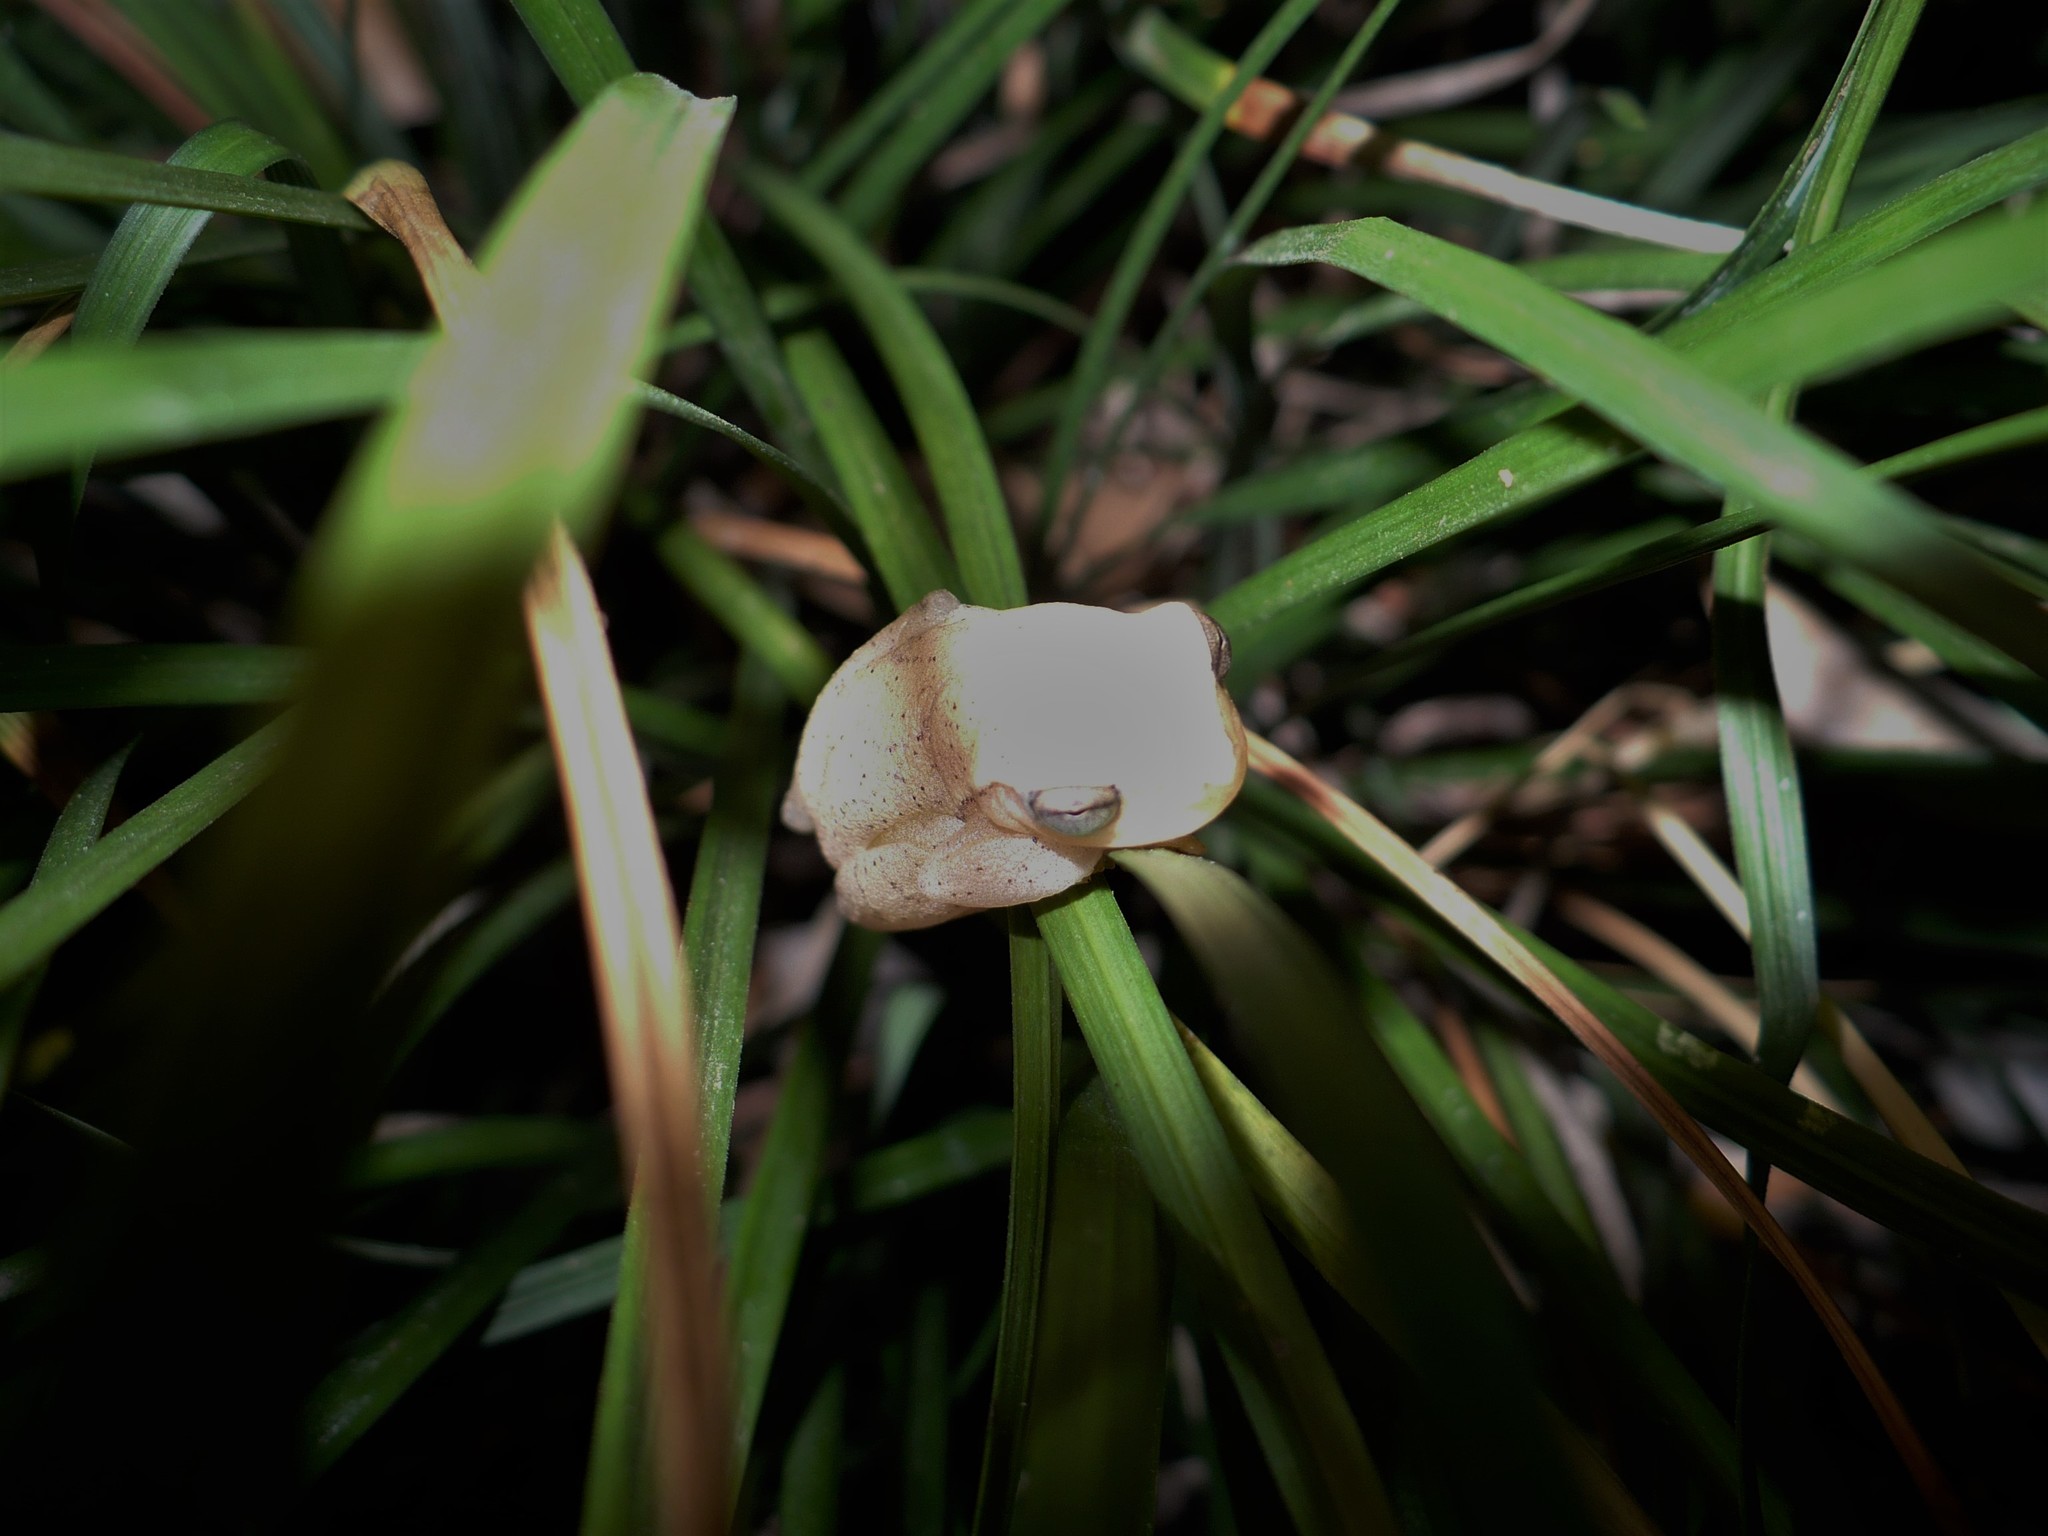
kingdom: Animalia
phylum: Chordata
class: Amphibia
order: Anura
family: Hylidae
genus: Dendropsophus
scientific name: Dendropsophus microcephalus
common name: Small-headed treefrog
